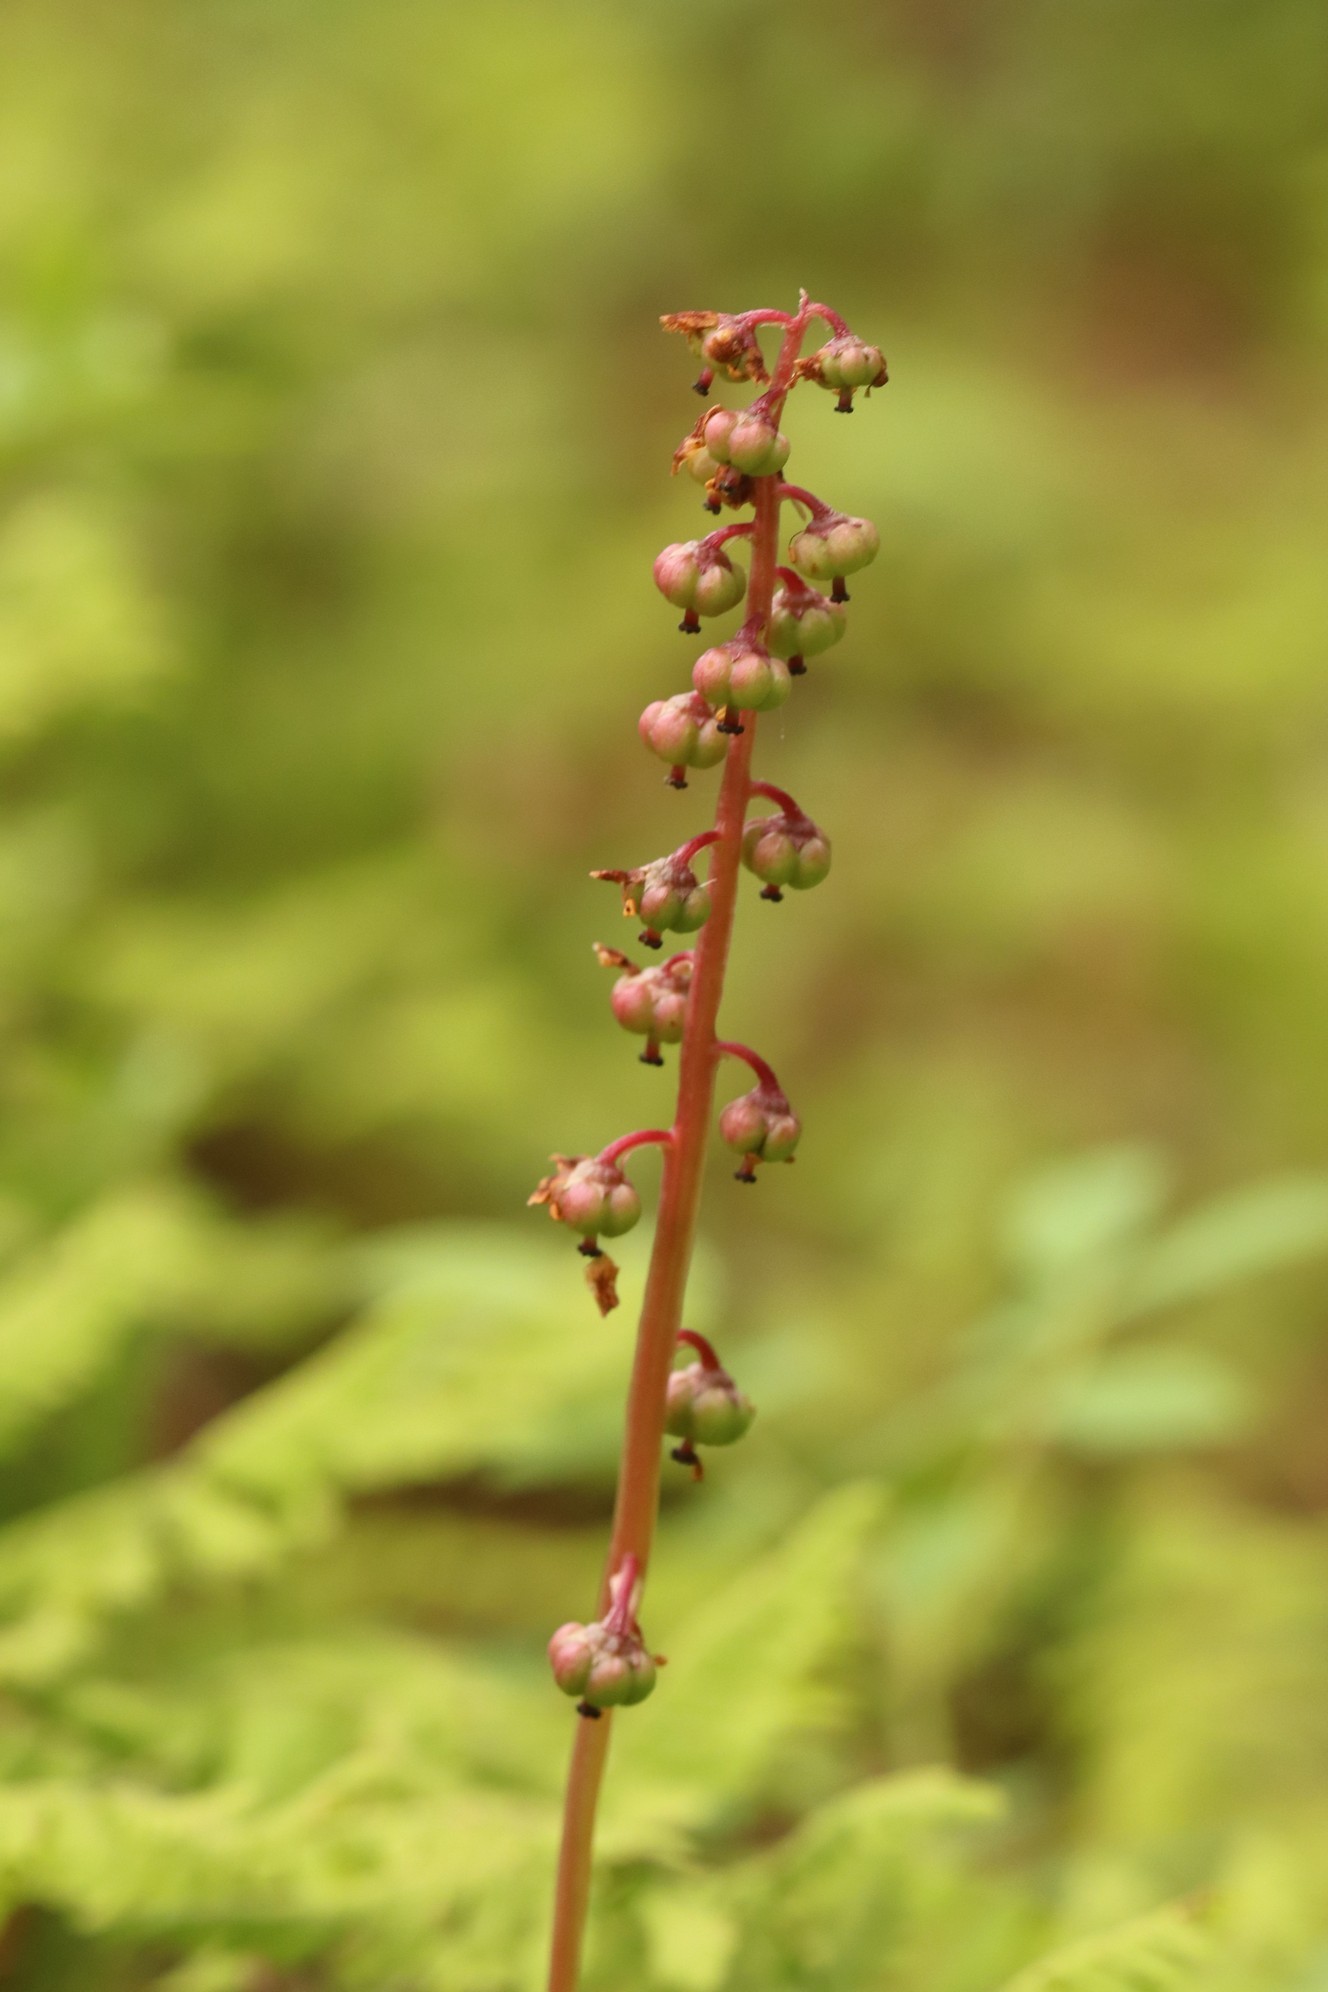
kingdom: Plantae
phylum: Tracheophyta
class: Magnoliopsida
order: Ericales
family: Ericaceae
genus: Pyrola
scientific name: Pyrola minor
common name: Common wintergreen
